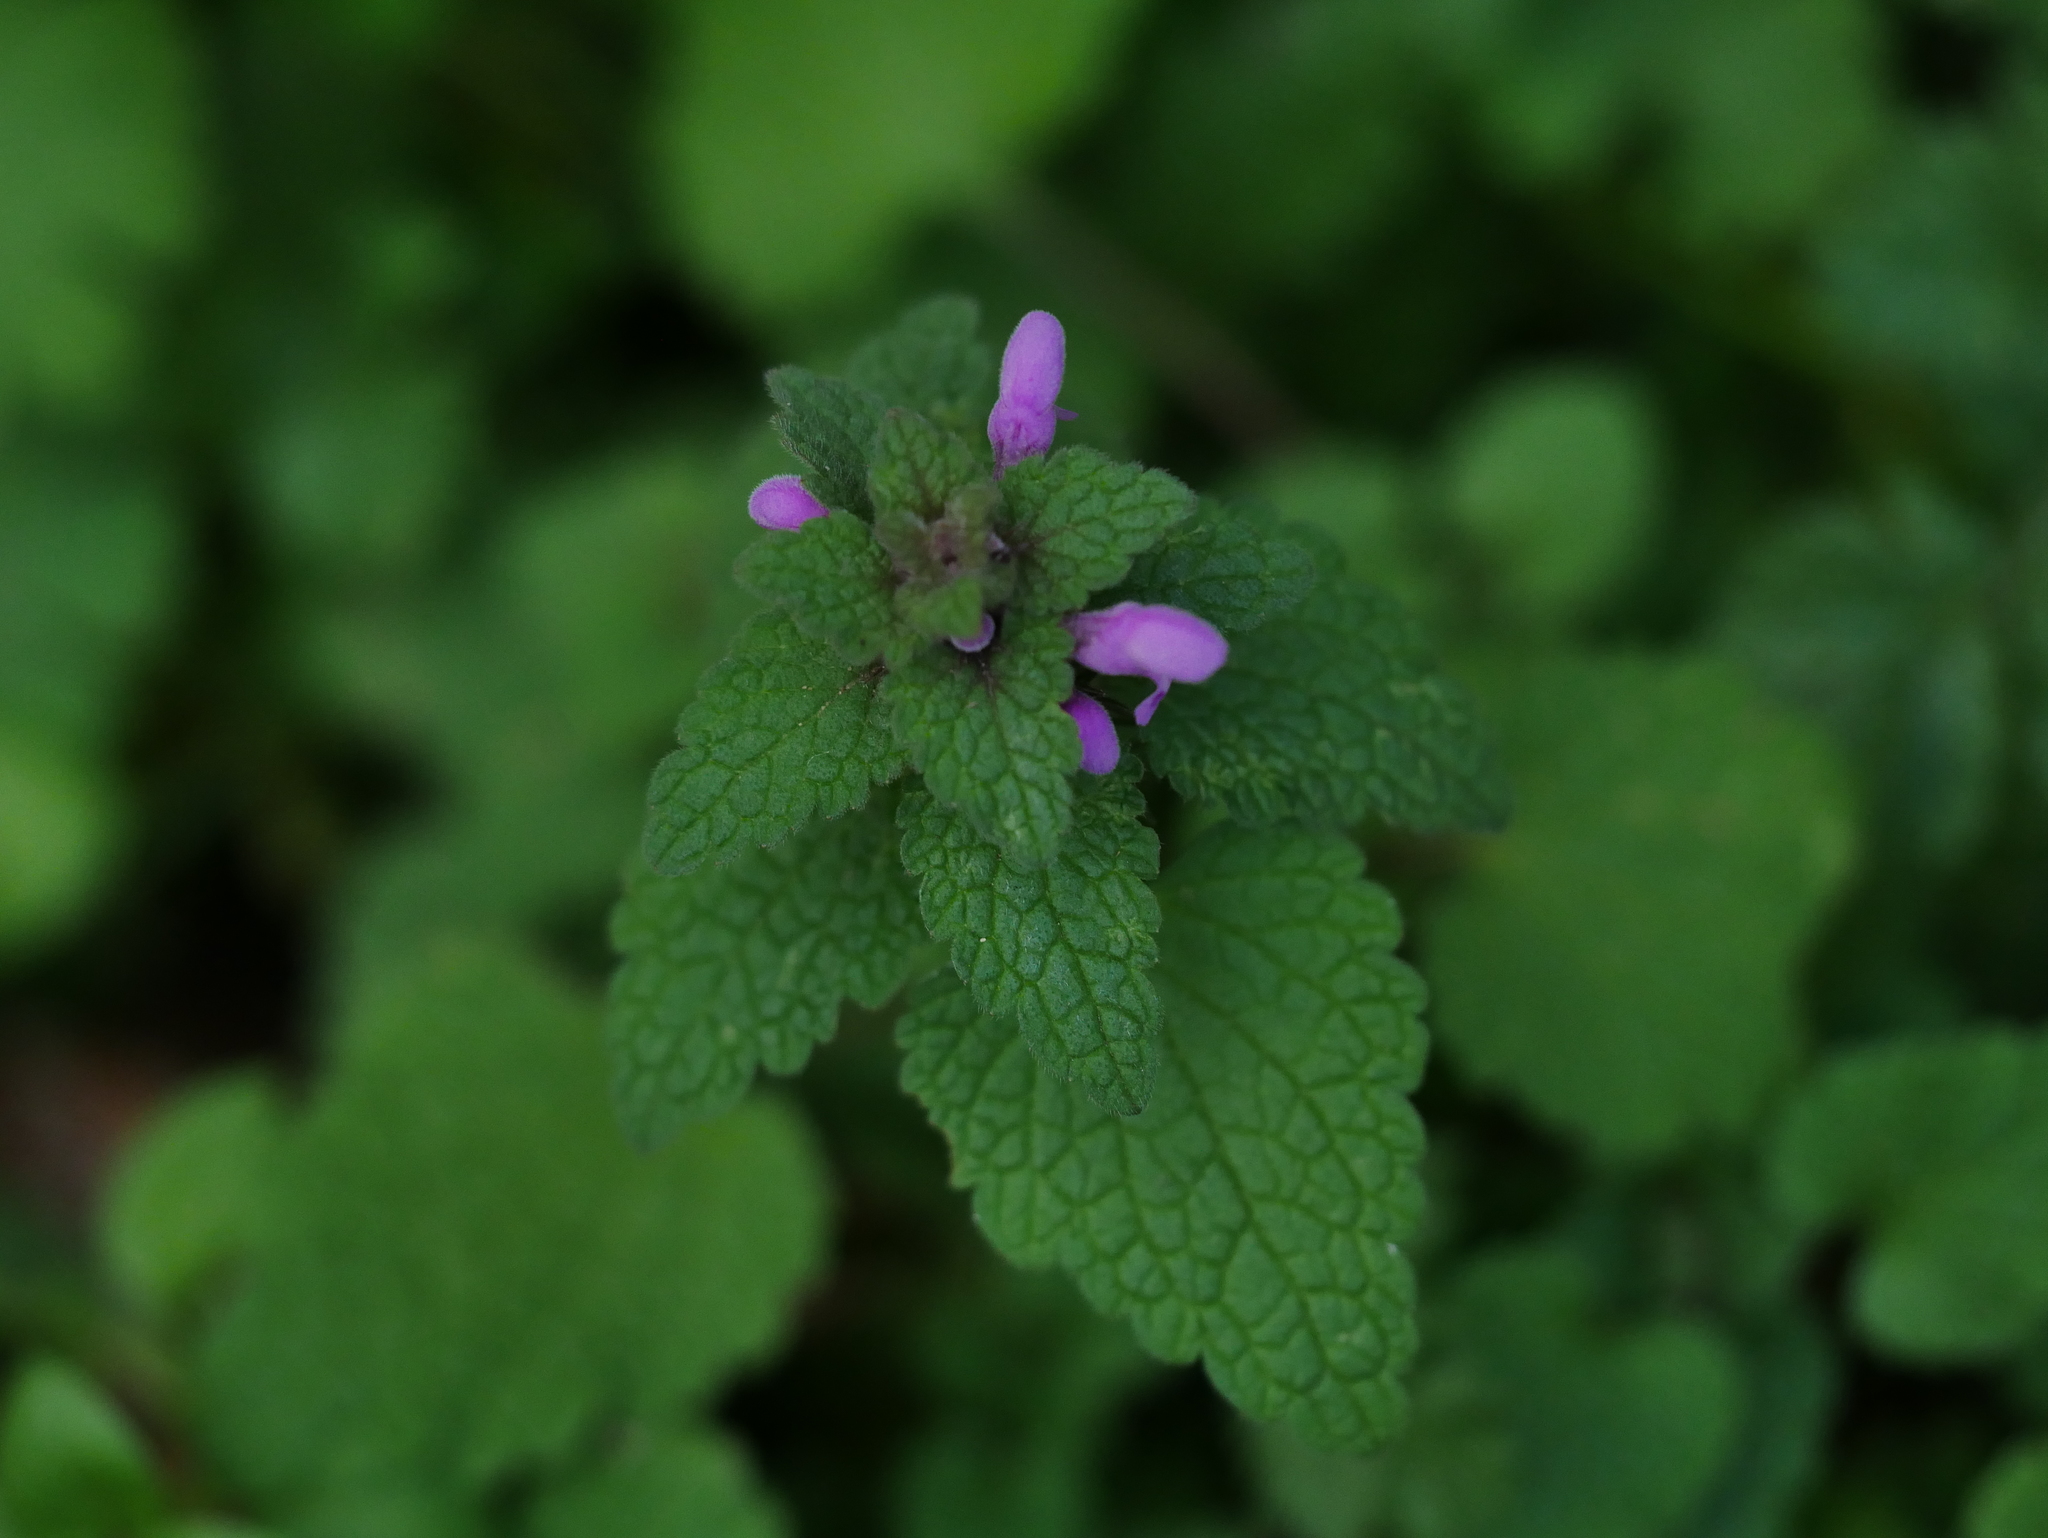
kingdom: Plantae
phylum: Tracheophyta
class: Magnoliopsida
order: Lamiales
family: Lamiaceae
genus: Lamium
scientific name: Lamium purpureum
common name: Red dead-nettle
